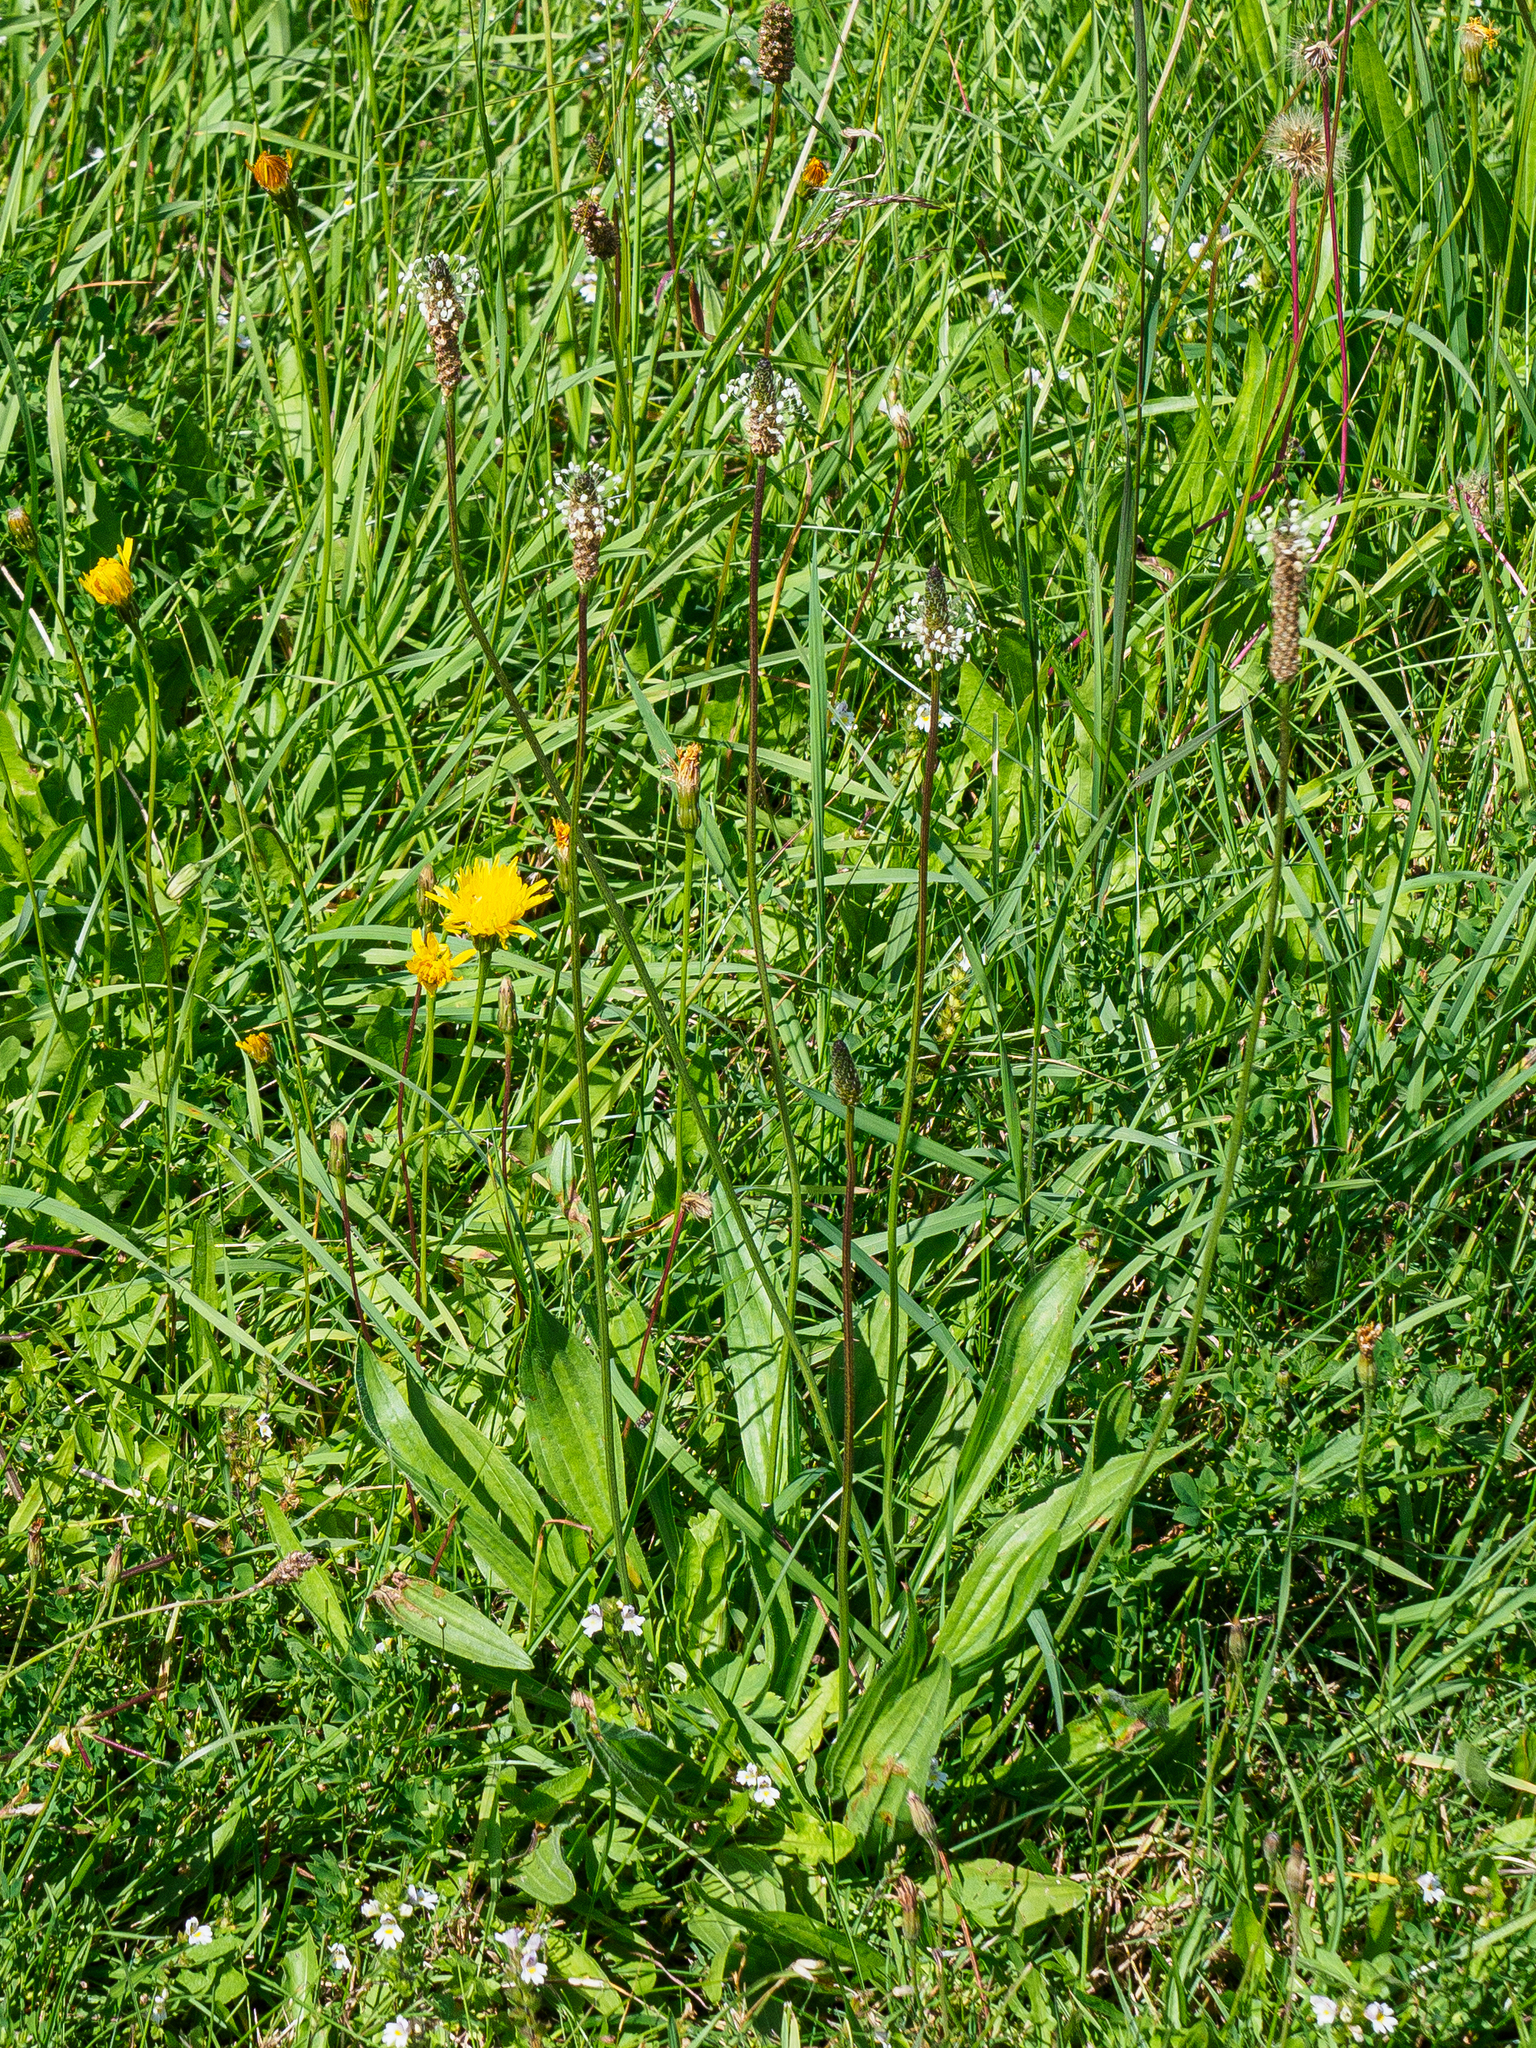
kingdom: Plantae
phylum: Tracheophyta
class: Magnoliopsida
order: Lamiales
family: Plantaginaceae
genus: Plantago
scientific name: Plantago lanceolata
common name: Ribwort plantain
